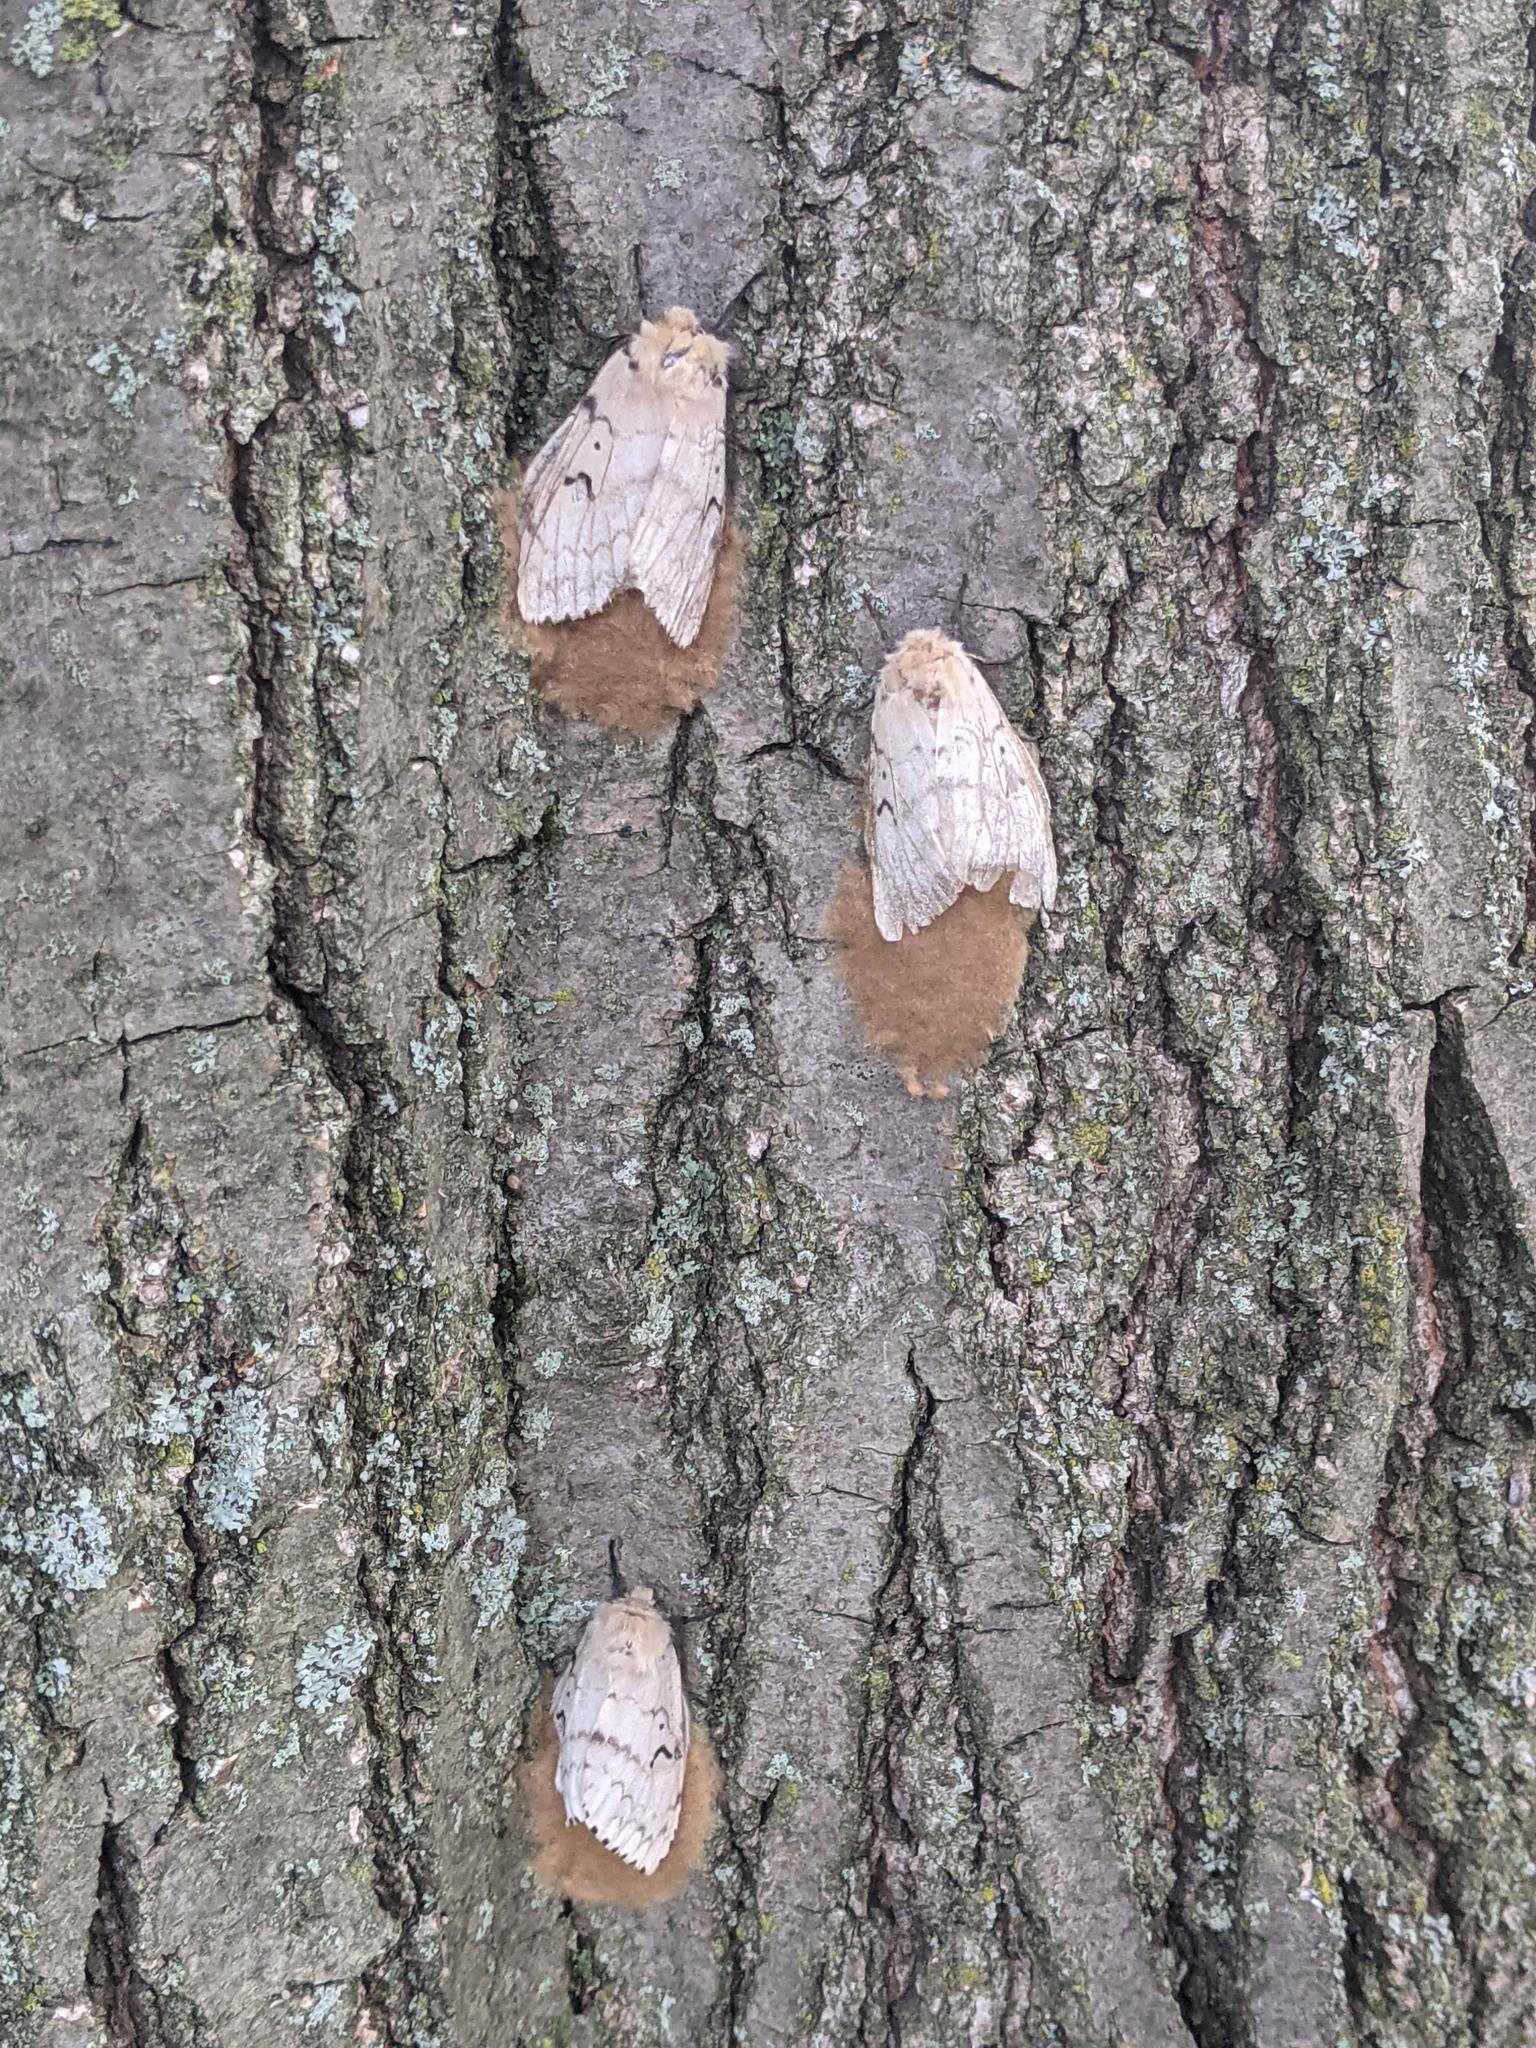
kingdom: Animalia
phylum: Arthropoda
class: Insecta
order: Lepidoptera
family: Erebidae
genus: Lymantria
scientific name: Lymantria dispar
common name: Gypsy moth
